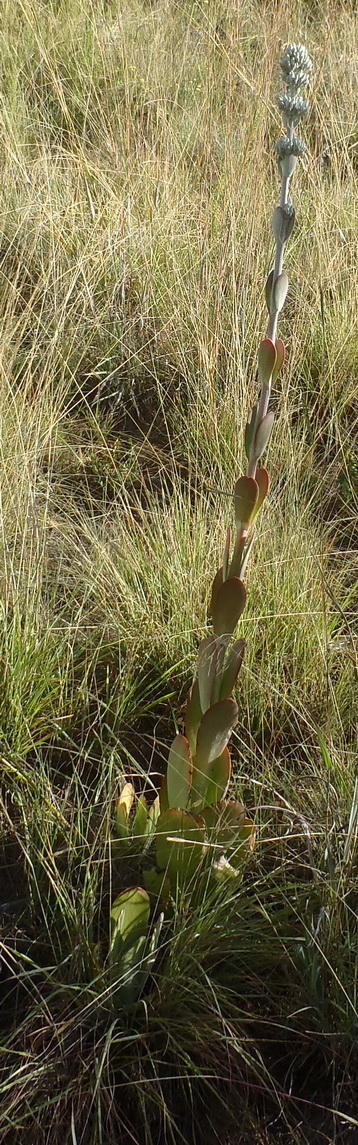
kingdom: Plantae
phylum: Tracheophyta
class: Magnoliopsida
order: Saxifragales
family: Crassulaceae
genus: Kalanchoe
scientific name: Kalanchoe thyrsiflora
